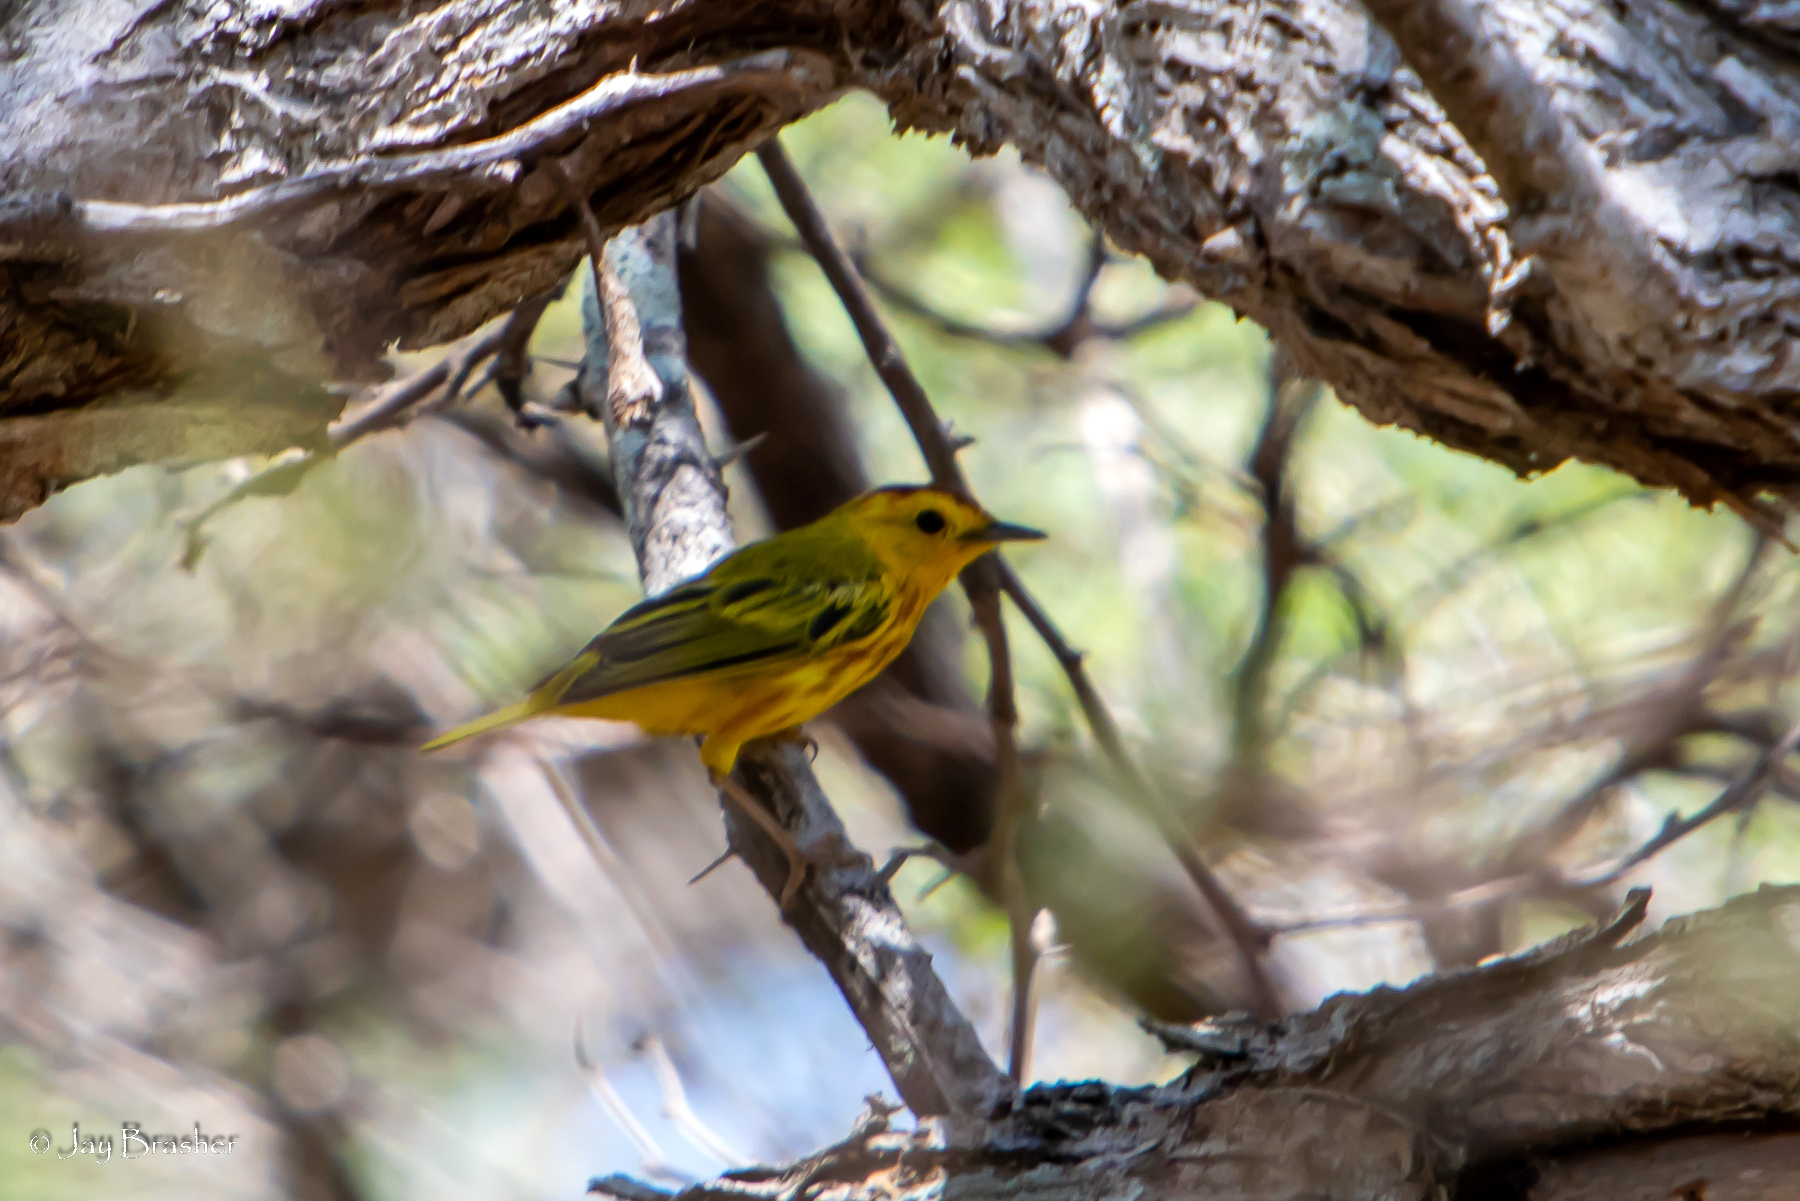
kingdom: Animalia
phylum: Chordata
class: Aves
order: Passeriformes
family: Parulidae
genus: Setophaga
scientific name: Setophaga petechia
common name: Yellow warbler
